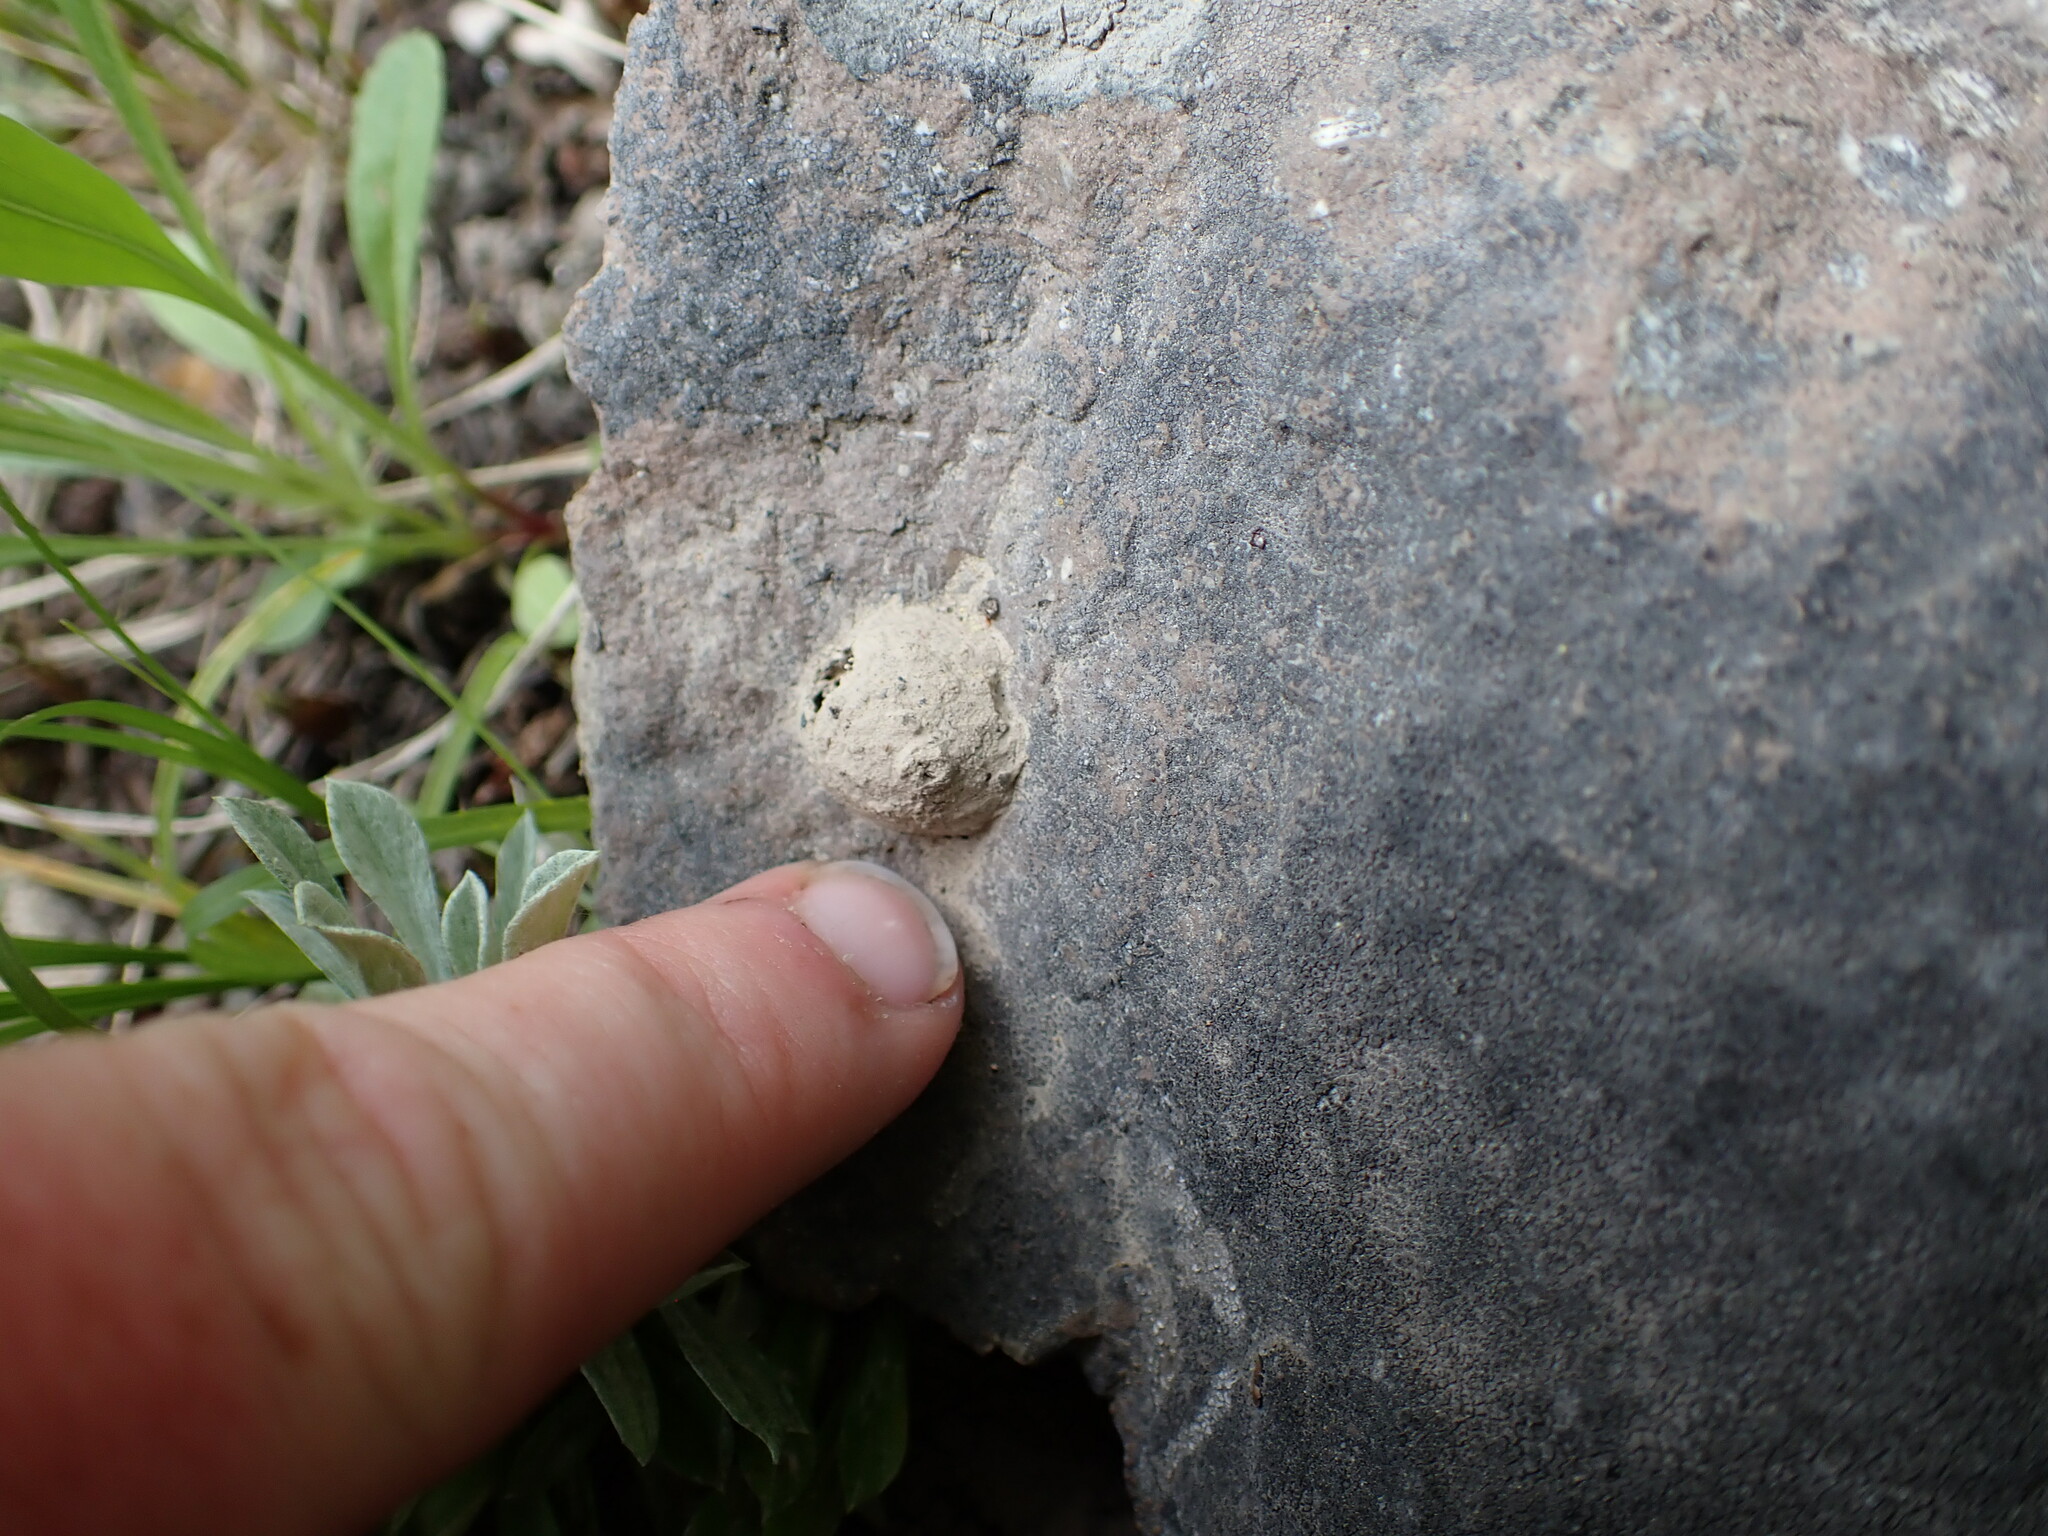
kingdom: Animalia
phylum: Arthropoda
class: Insecta
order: Hymenoptera
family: Vespidae
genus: Eumenes
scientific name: Eumenes
